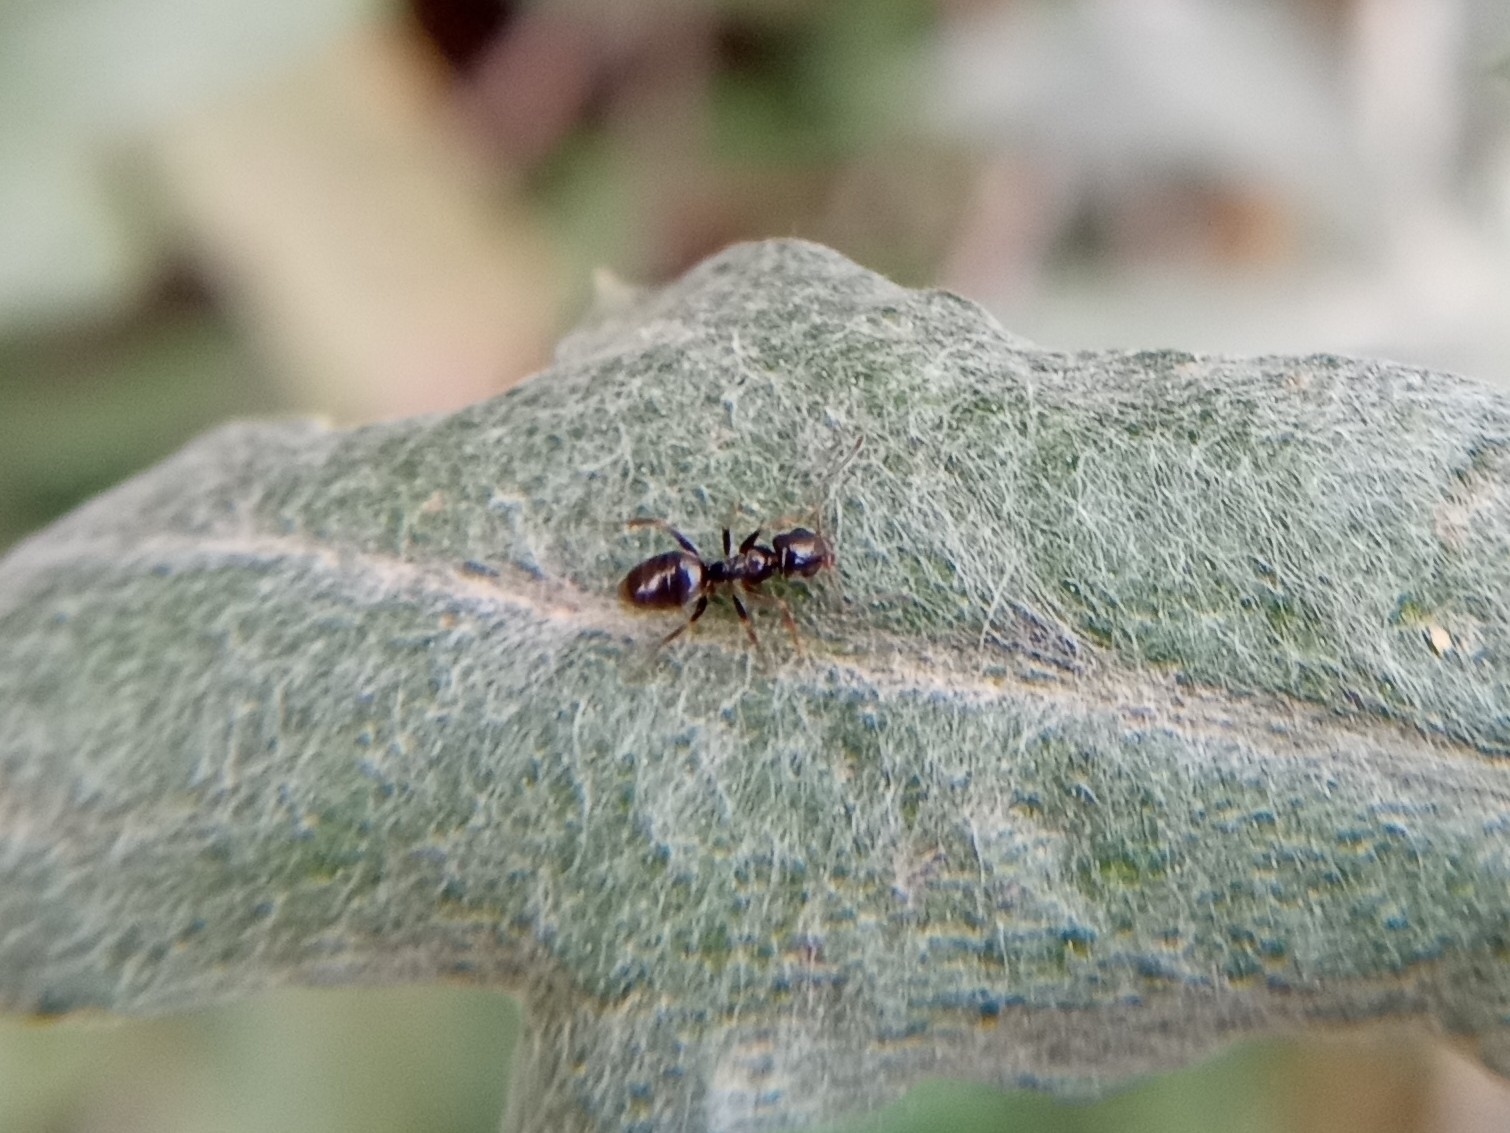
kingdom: Animalia
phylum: Arthropoda
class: Insecta
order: Hymenoptera
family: Formicidae
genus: Tapinoma
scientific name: Tapinoma sessile
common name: Odorous house ant
